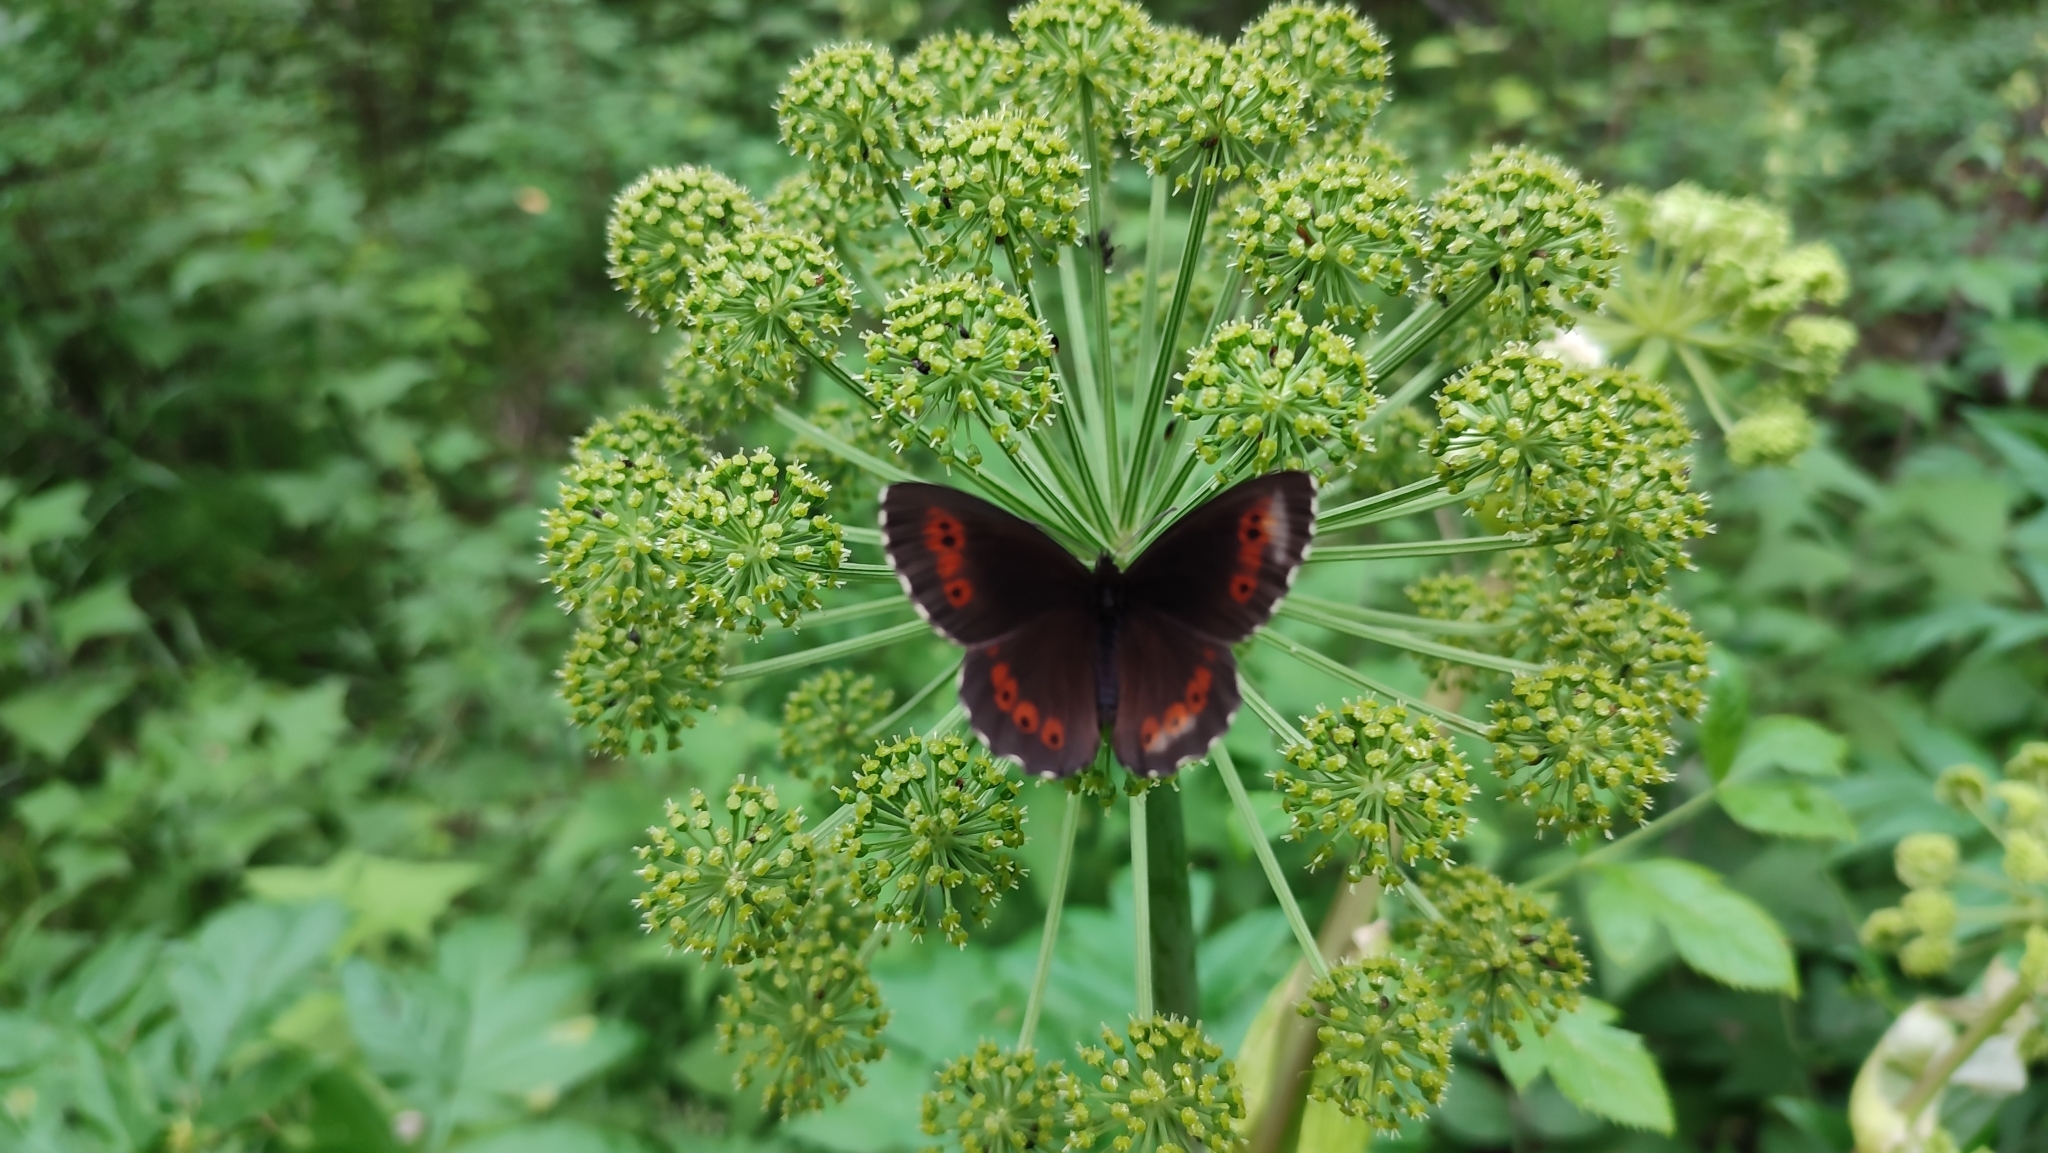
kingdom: Animalia
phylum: Arthropoda
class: Insecta
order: Lepidoptera
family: Nymphalidae
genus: Erebia
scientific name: Erebia ligea
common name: Arran brown
